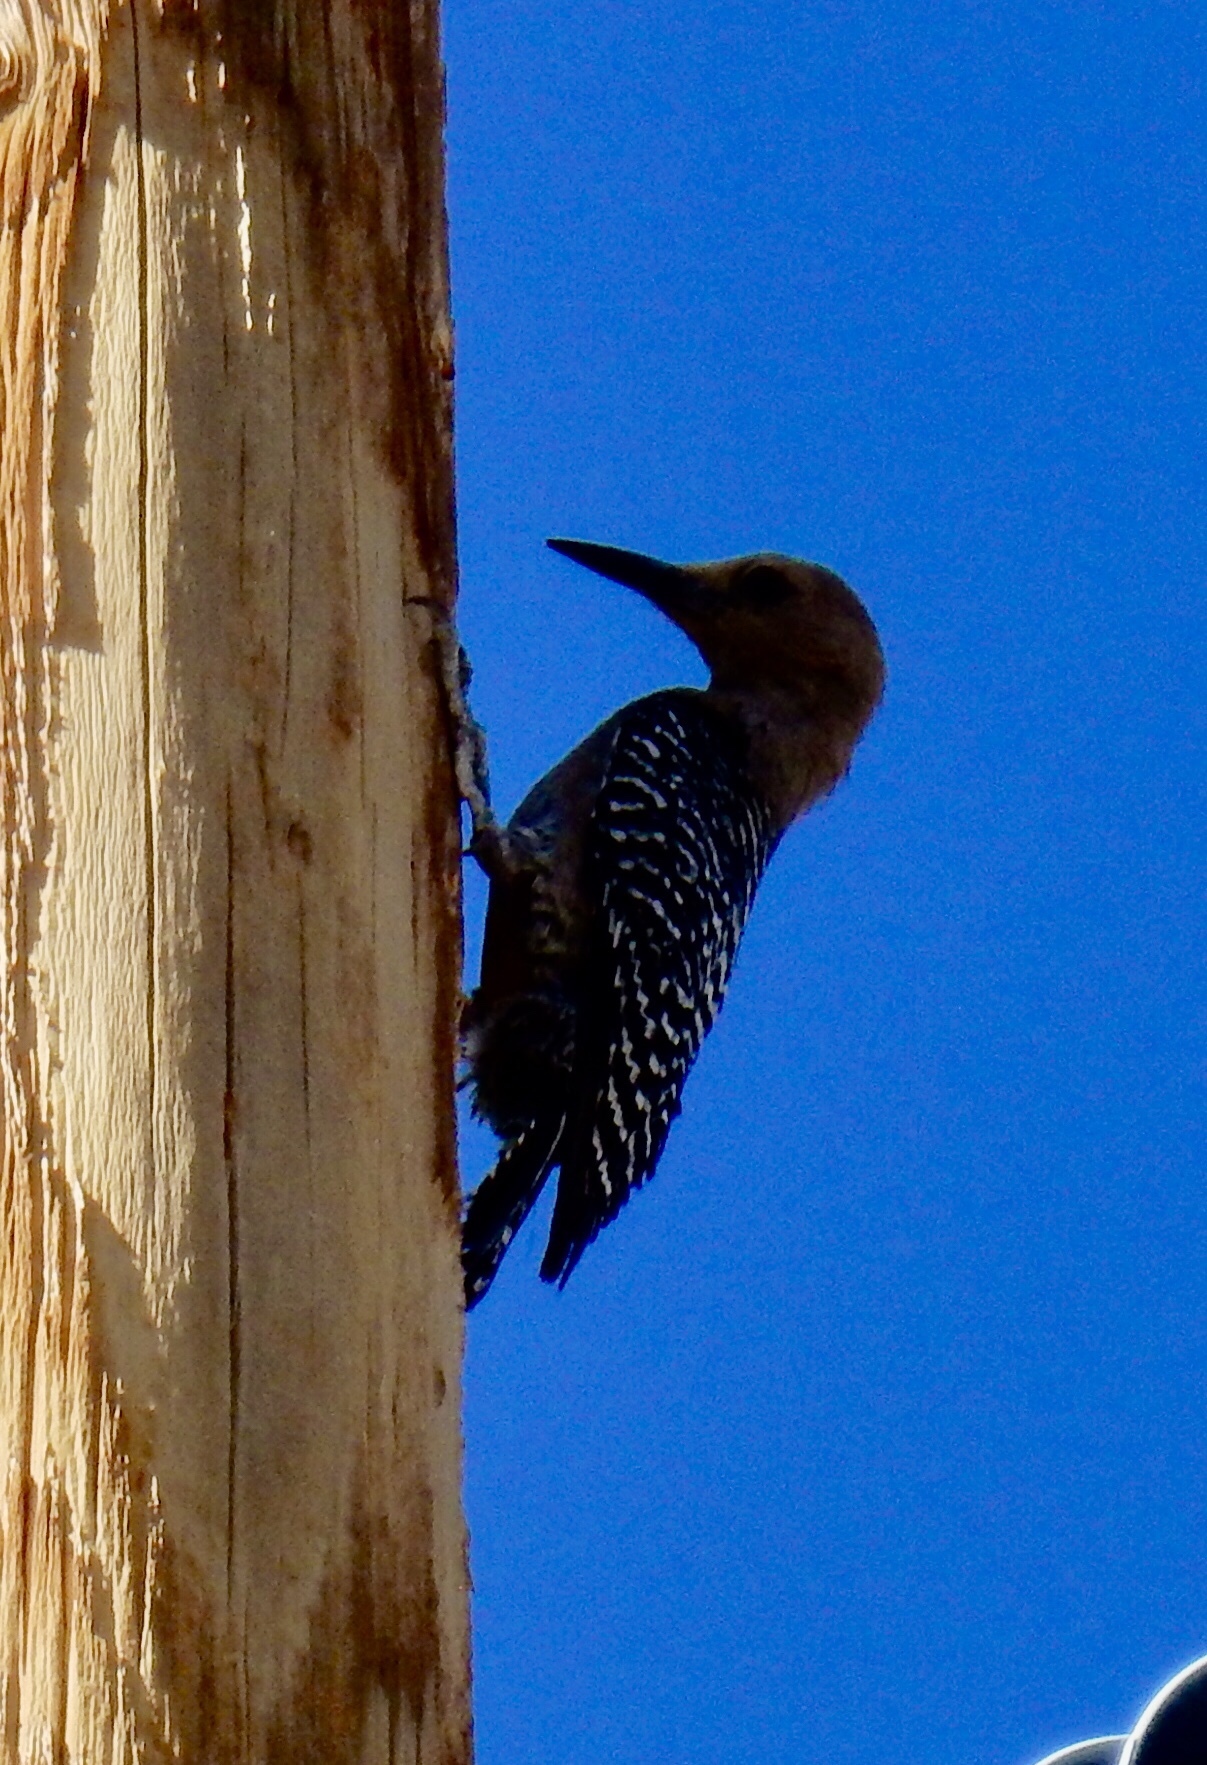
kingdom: Animalia
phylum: Chordata
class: Aves
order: Piciformes
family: Picidae
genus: Melanerpes
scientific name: Melanerpes uropygialis
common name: Gila woodpecker
